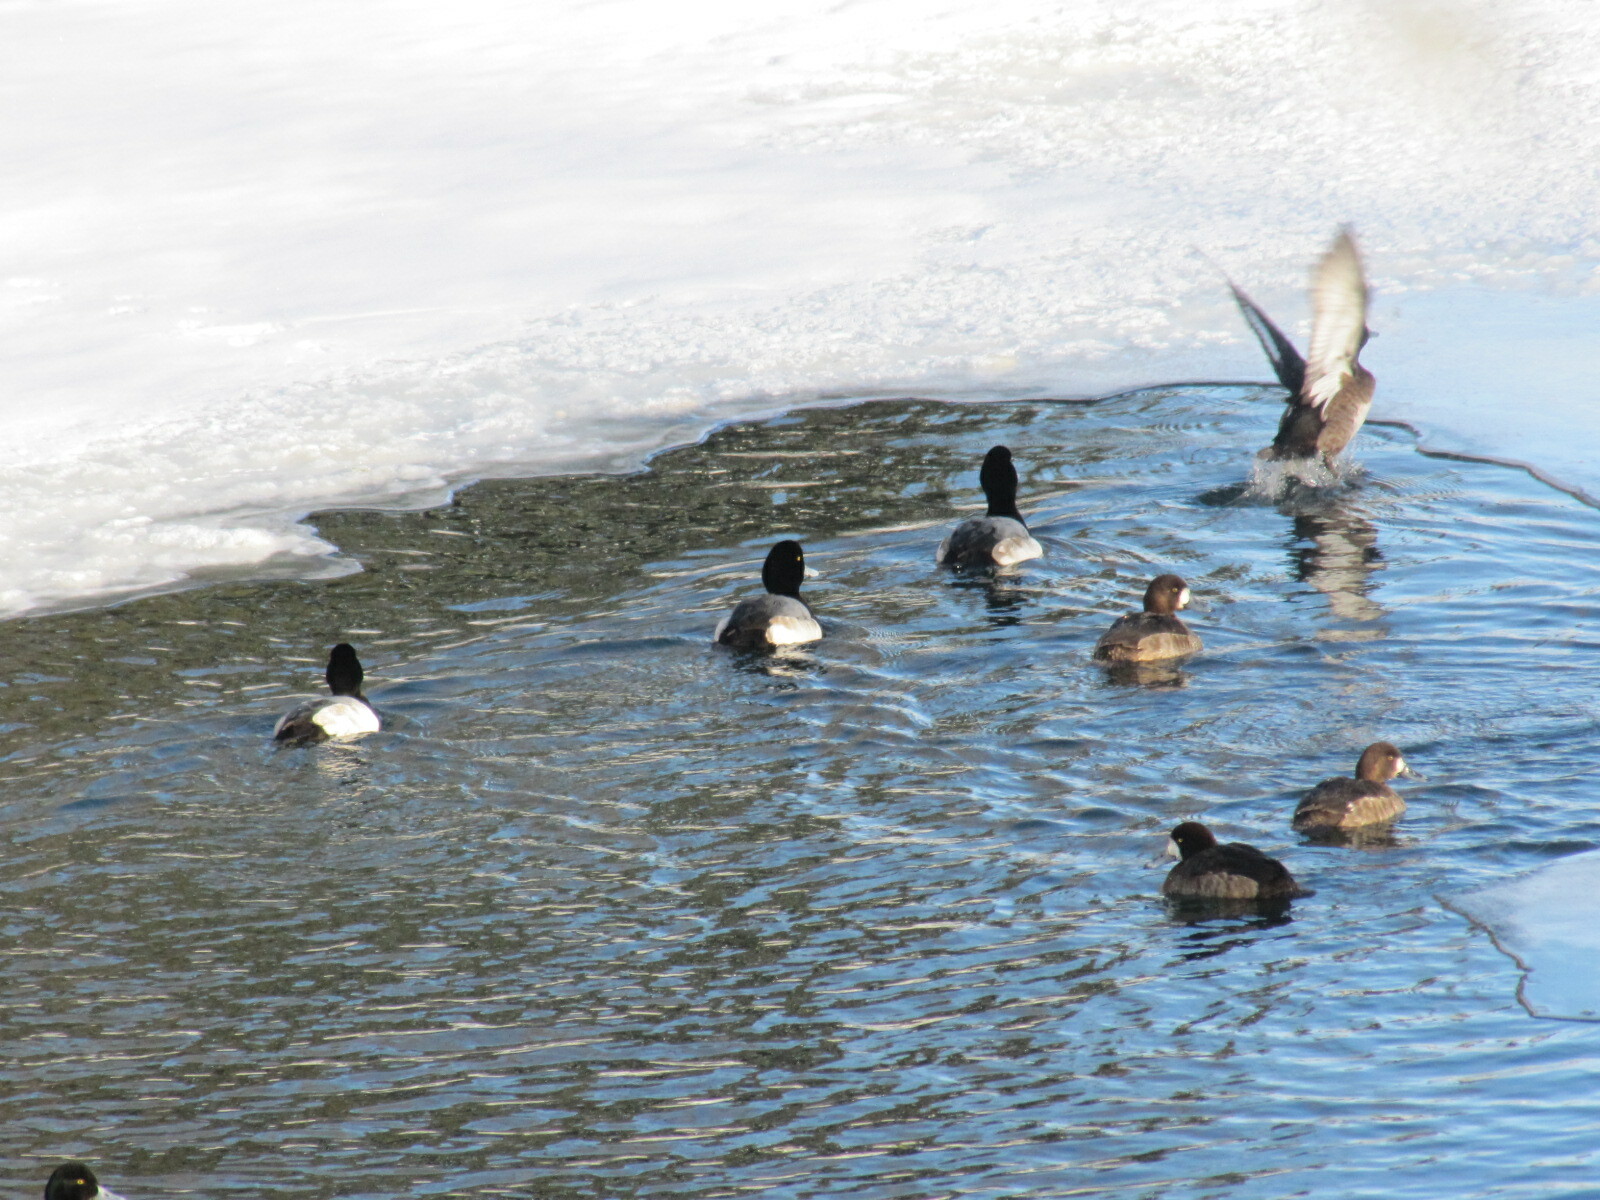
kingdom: Animalia
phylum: Chordata
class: Aves
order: Anseriformes
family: Anatidae
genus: Aythya
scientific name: Aythya marila
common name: Greater scaup
